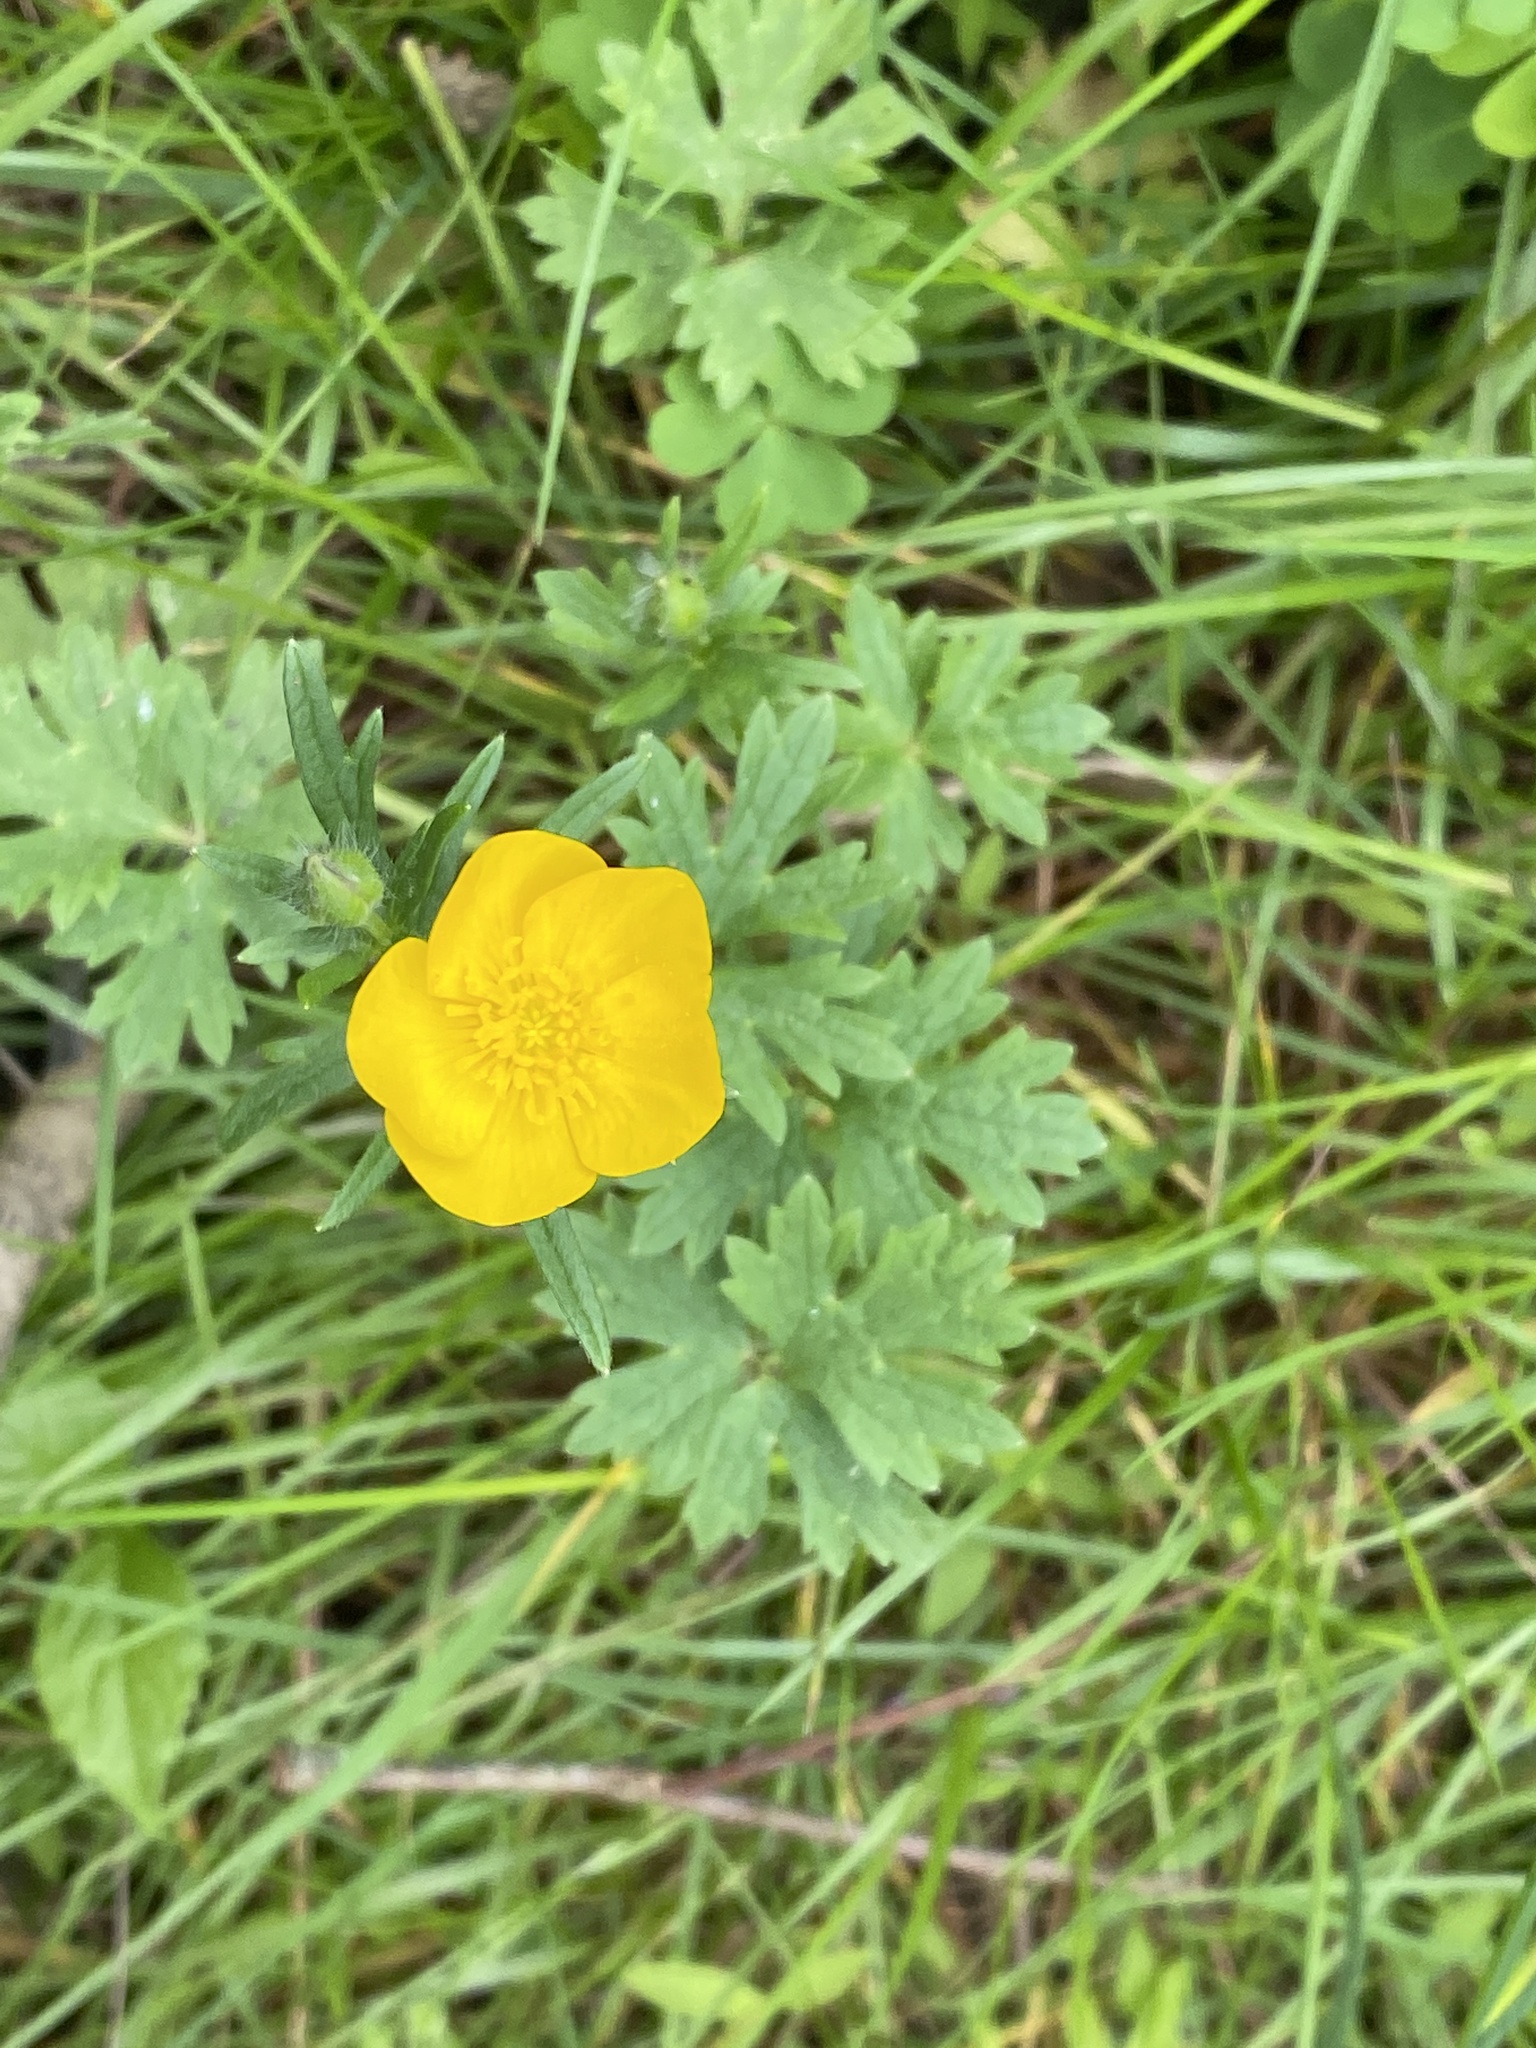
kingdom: Plantae
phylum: Tracheophyta
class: Magnoliopsida
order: Ranunculales
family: Ranunculaceae
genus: Ranunculus
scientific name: Ranunculus bulbosus
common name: Bulbous buttercup
